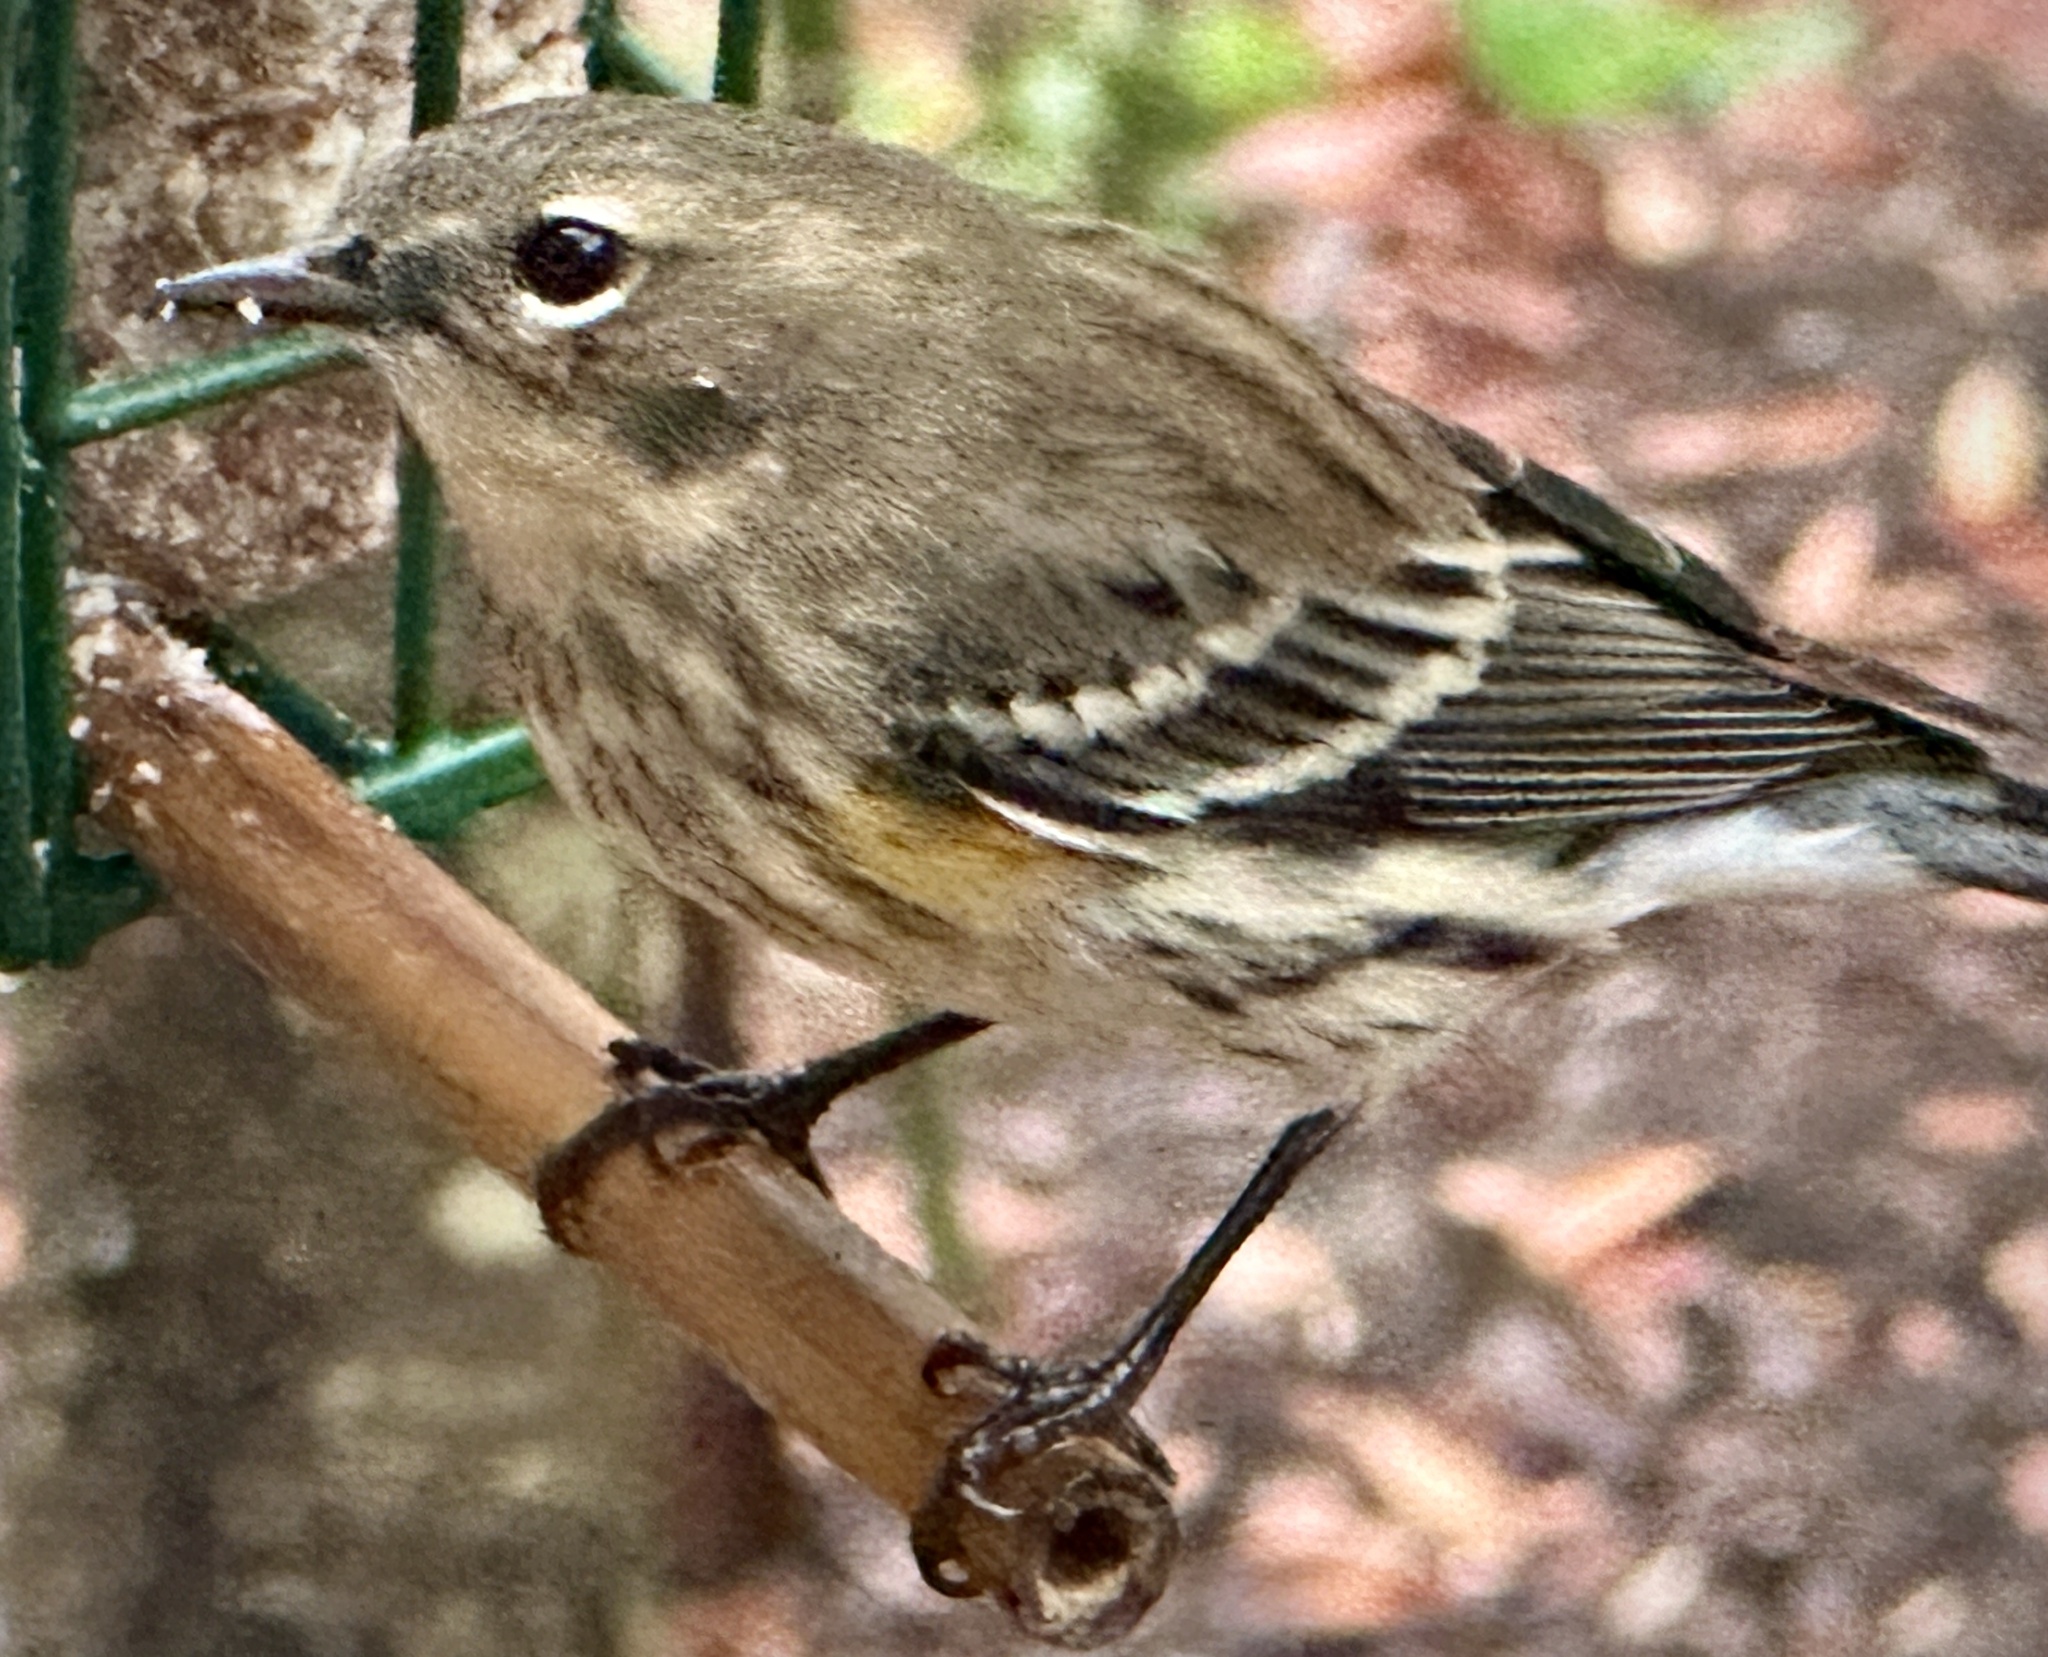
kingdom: Animalia
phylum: Chordata
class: Aves
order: Passeriformes
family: Parulidae
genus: Setophaga
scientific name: Setophaga coronata
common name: Myrtle warbler
